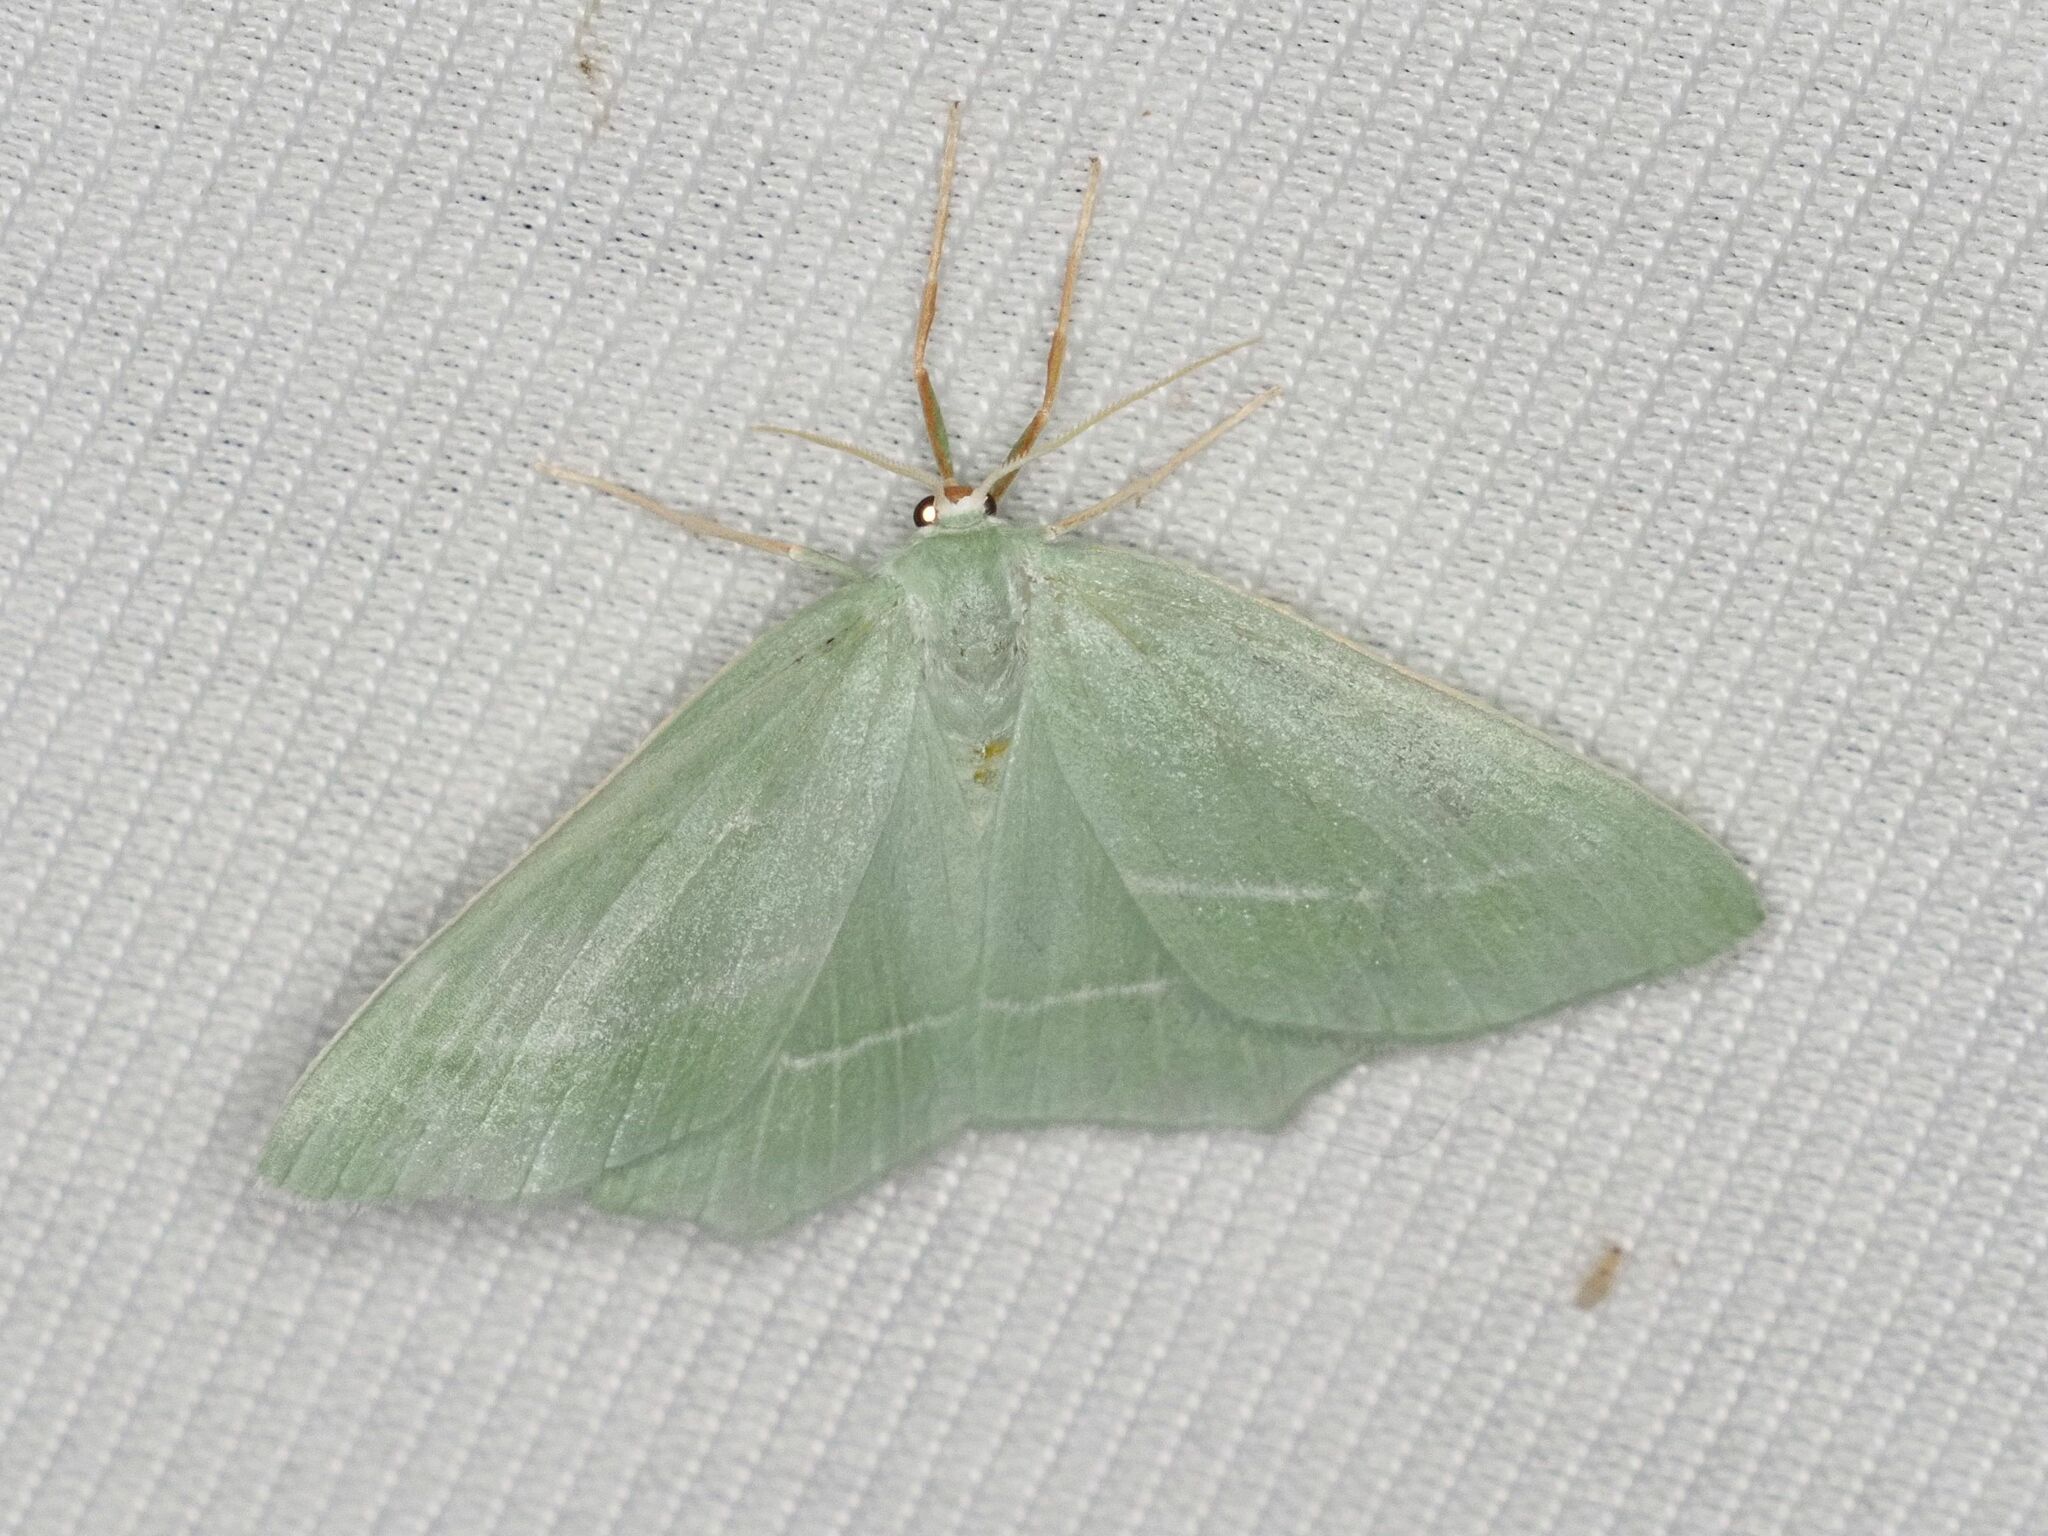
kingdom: Animalia
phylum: Arthropoda
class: Insecta
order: Lepidoptera
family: Geometridae
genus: Hemistola
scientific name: Hemistola chrysoprasaria
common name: Small emerald
